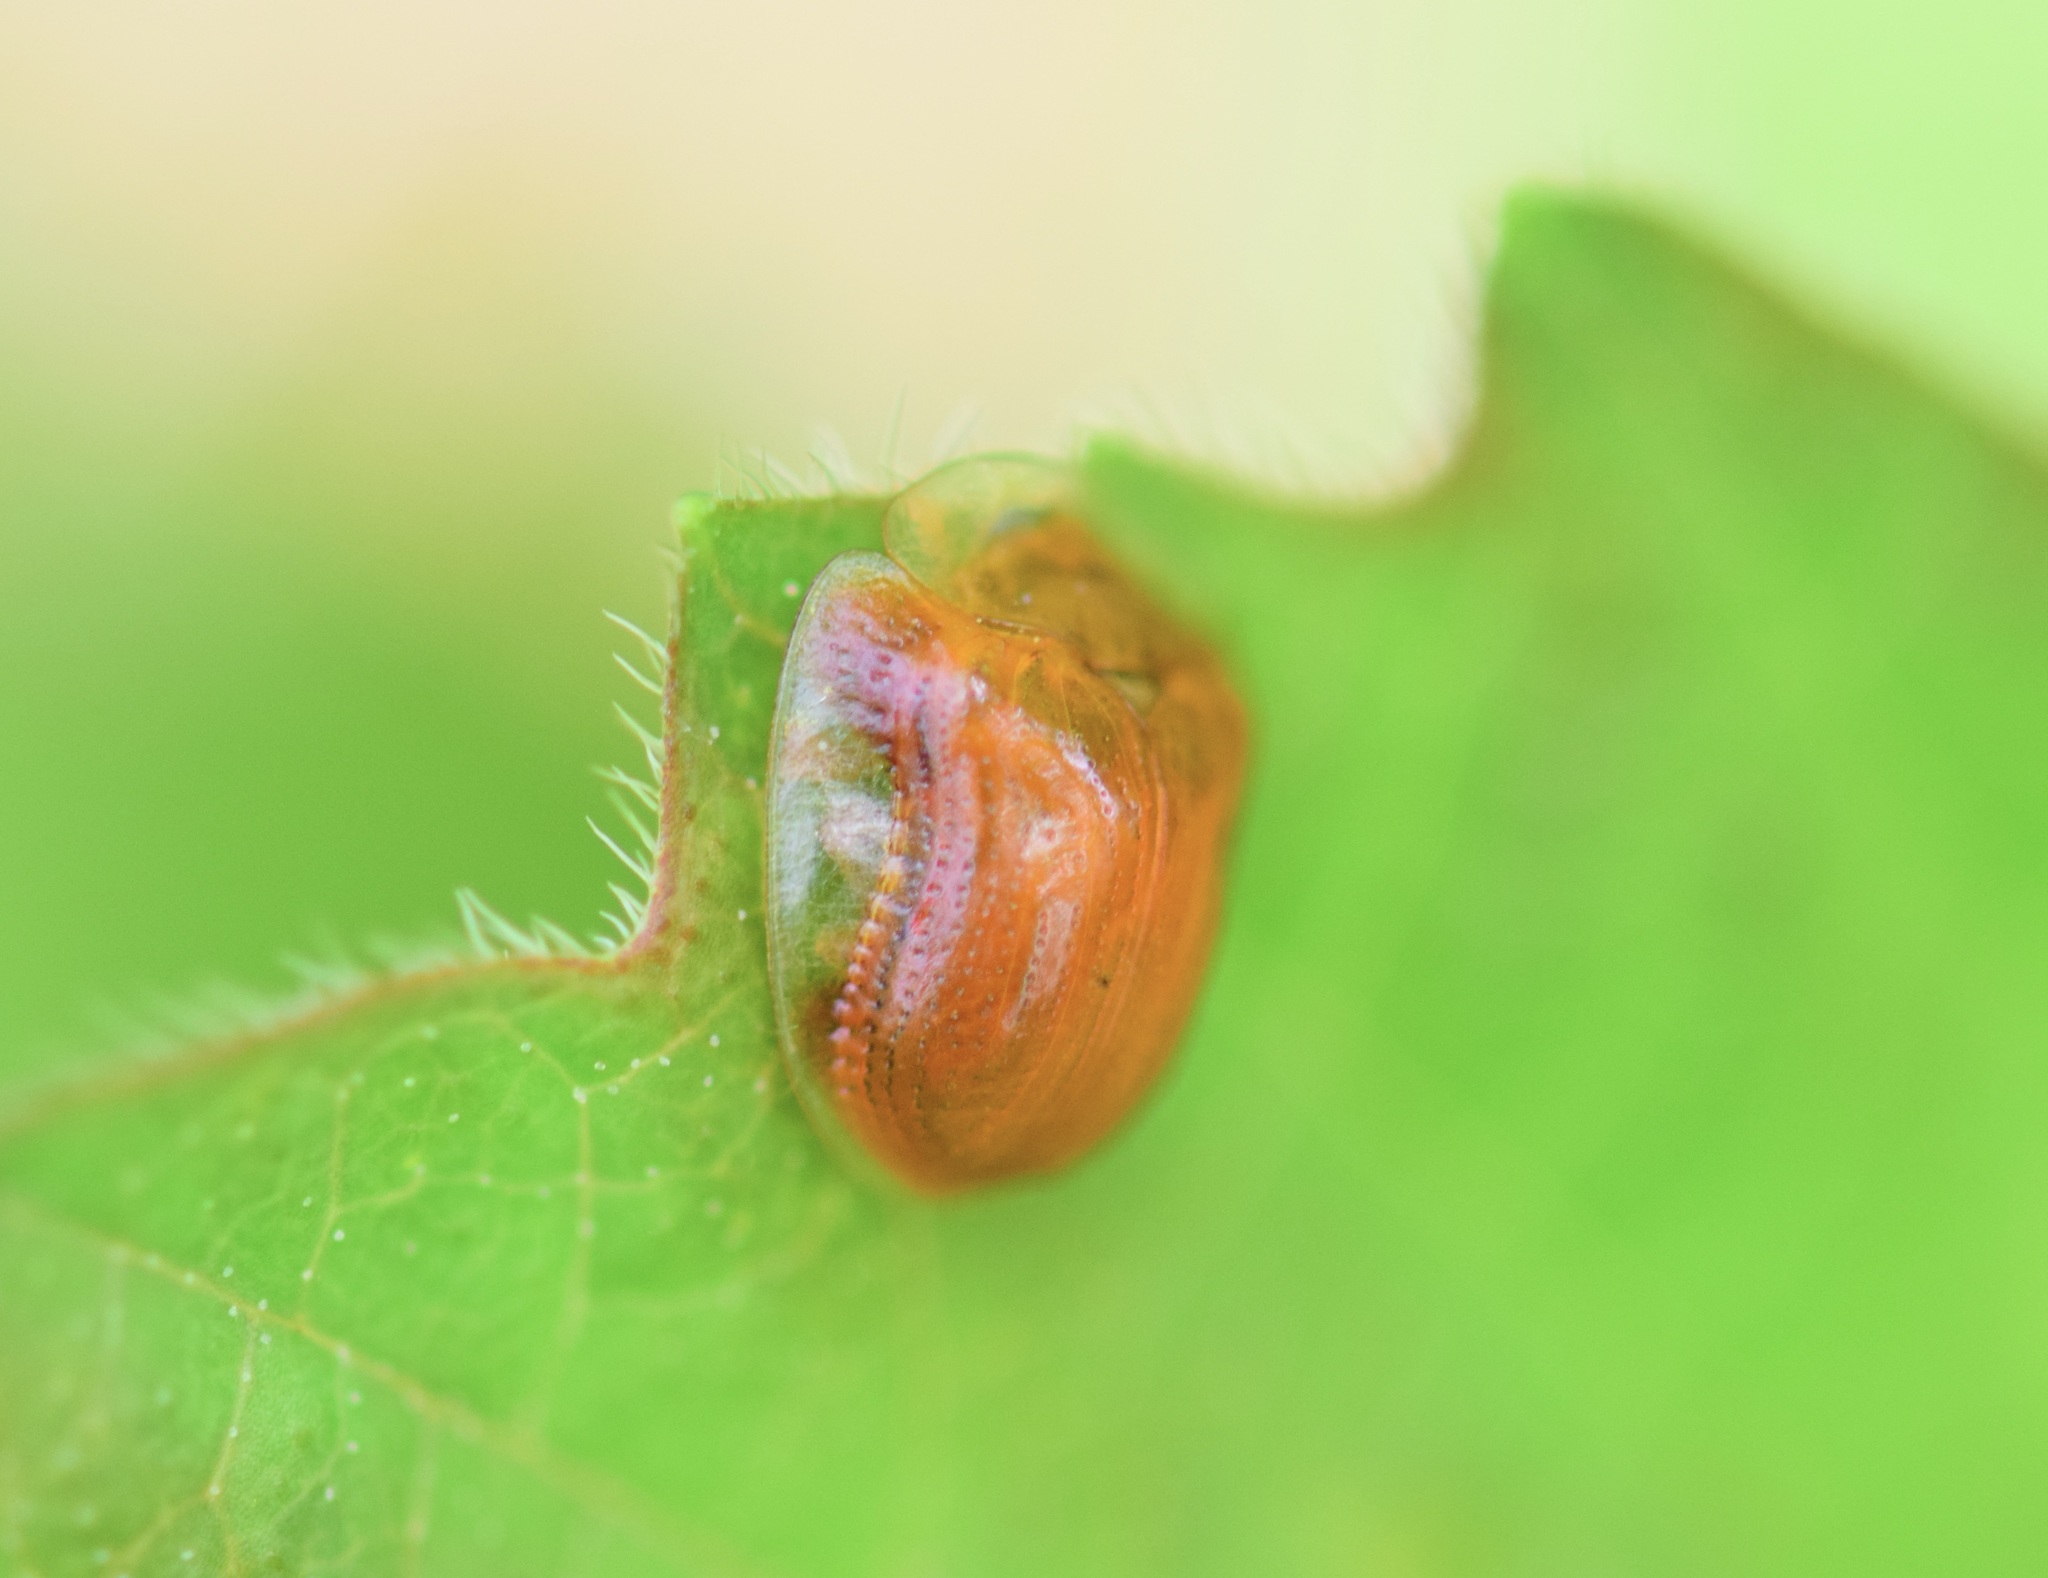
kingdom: Animalia
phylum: Arthropoda
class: Insecta
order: Coleoptera
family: Chrysomelidae
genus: Charidotella
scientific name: Charidotella purpurata
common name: Small orange tortoise beetle
